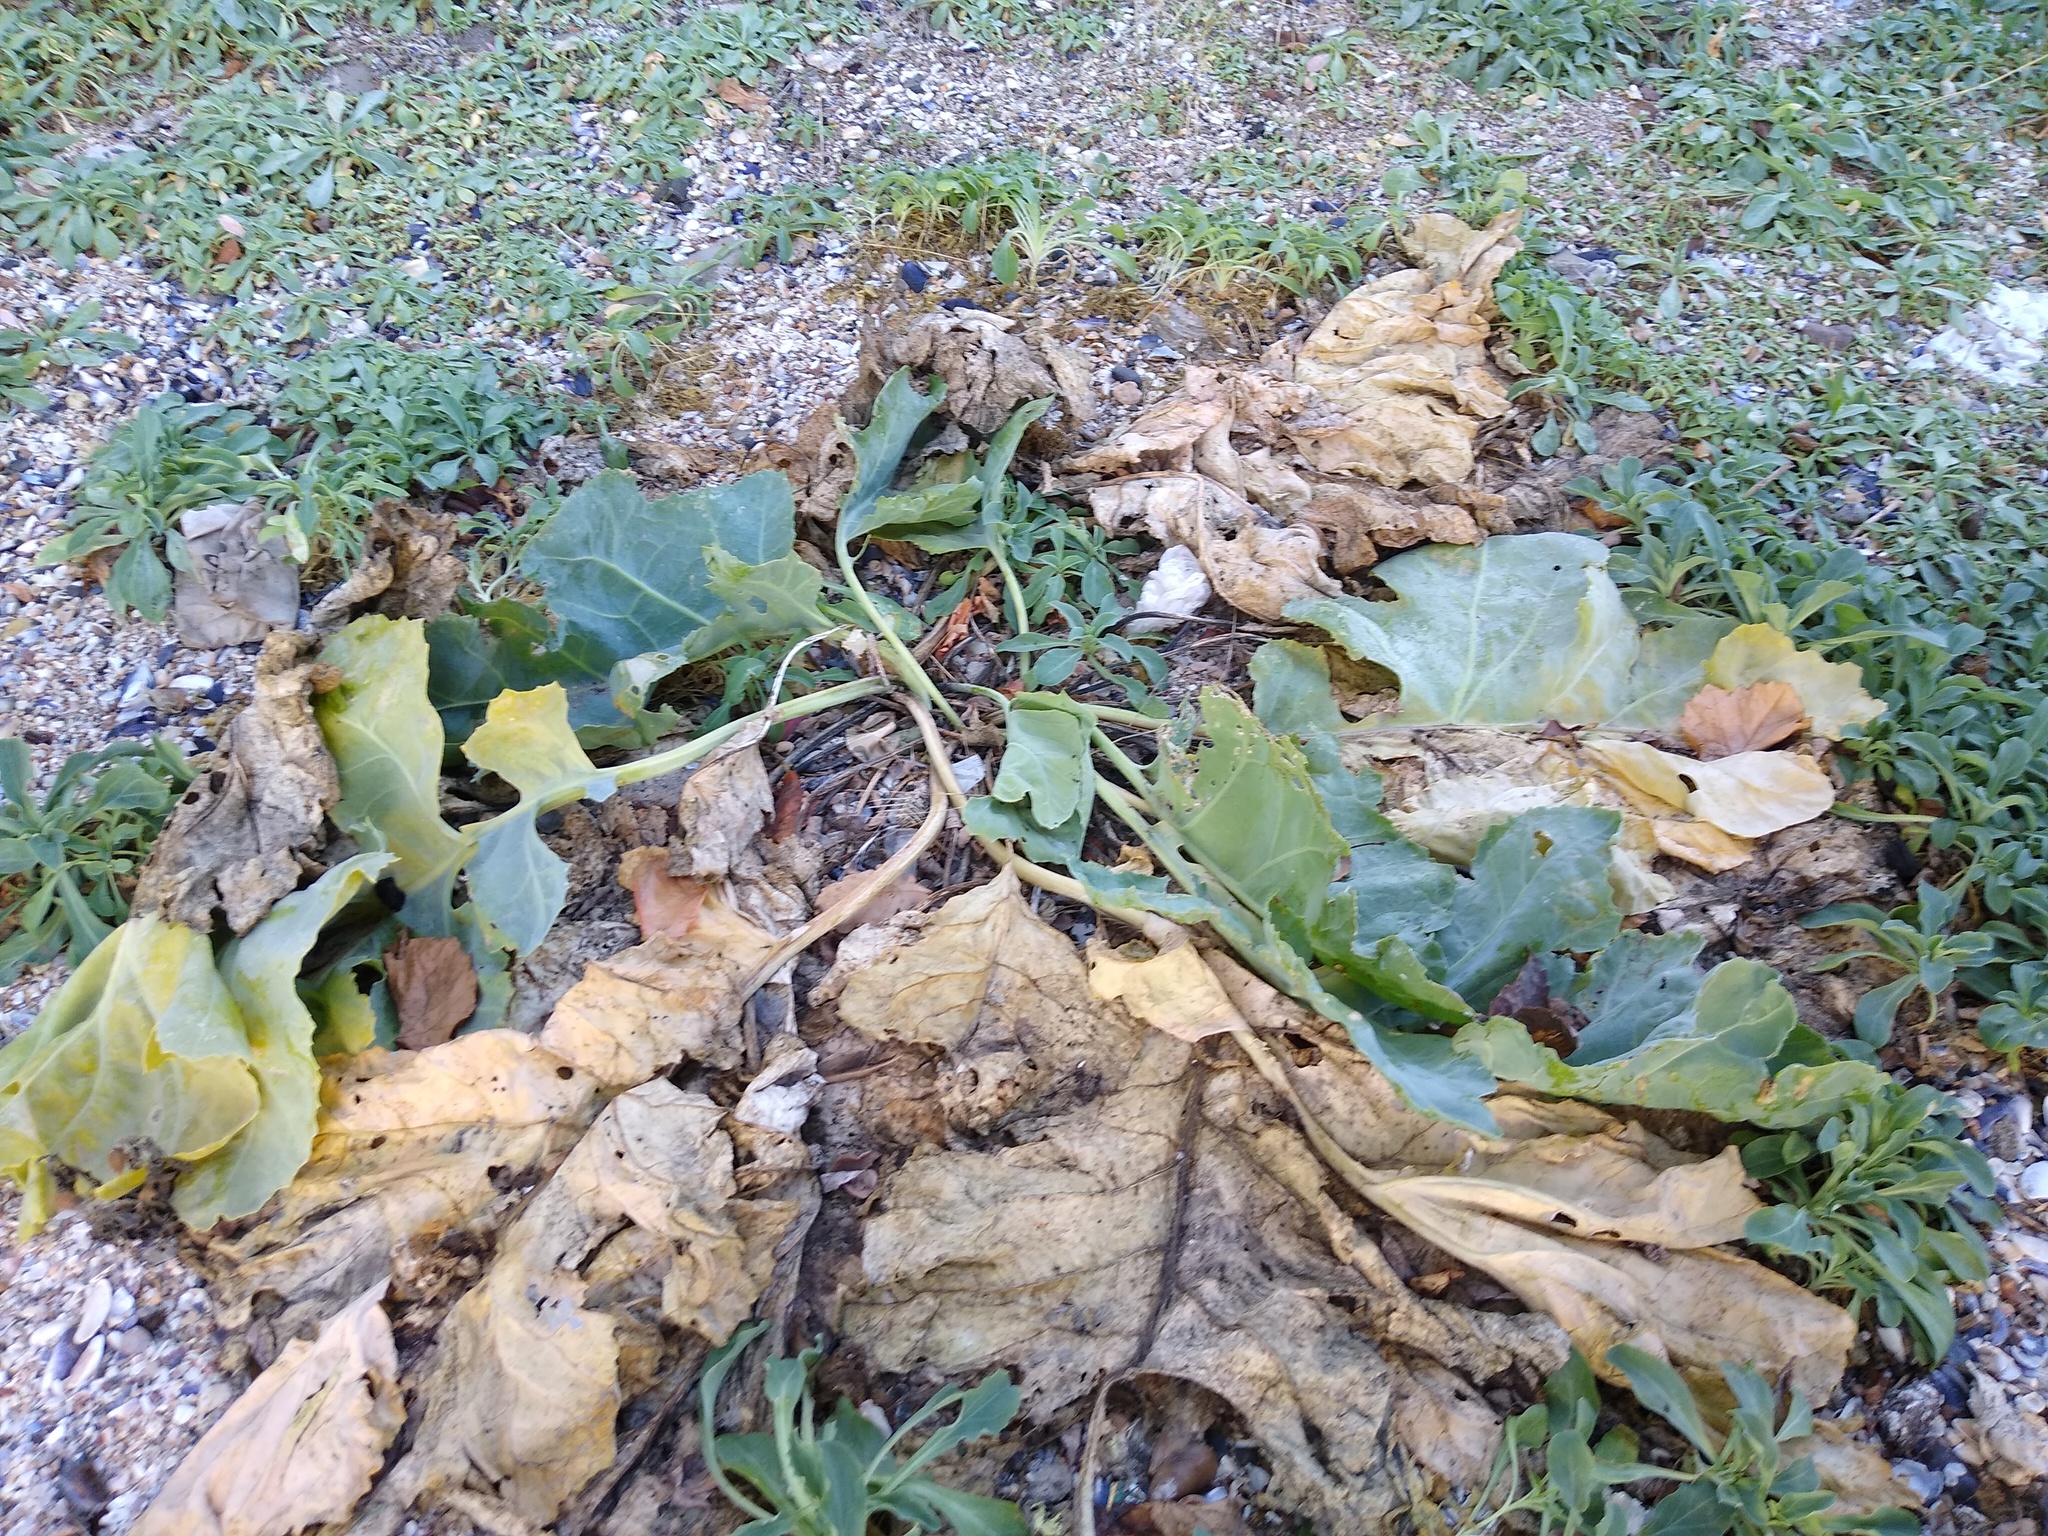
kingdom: Plantae
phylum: Tracheophyta
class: Magnoliopsida
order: Brassicales
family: Brassicaceae
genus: Crambe
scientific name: Crambe maritima
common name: Sea-kale
